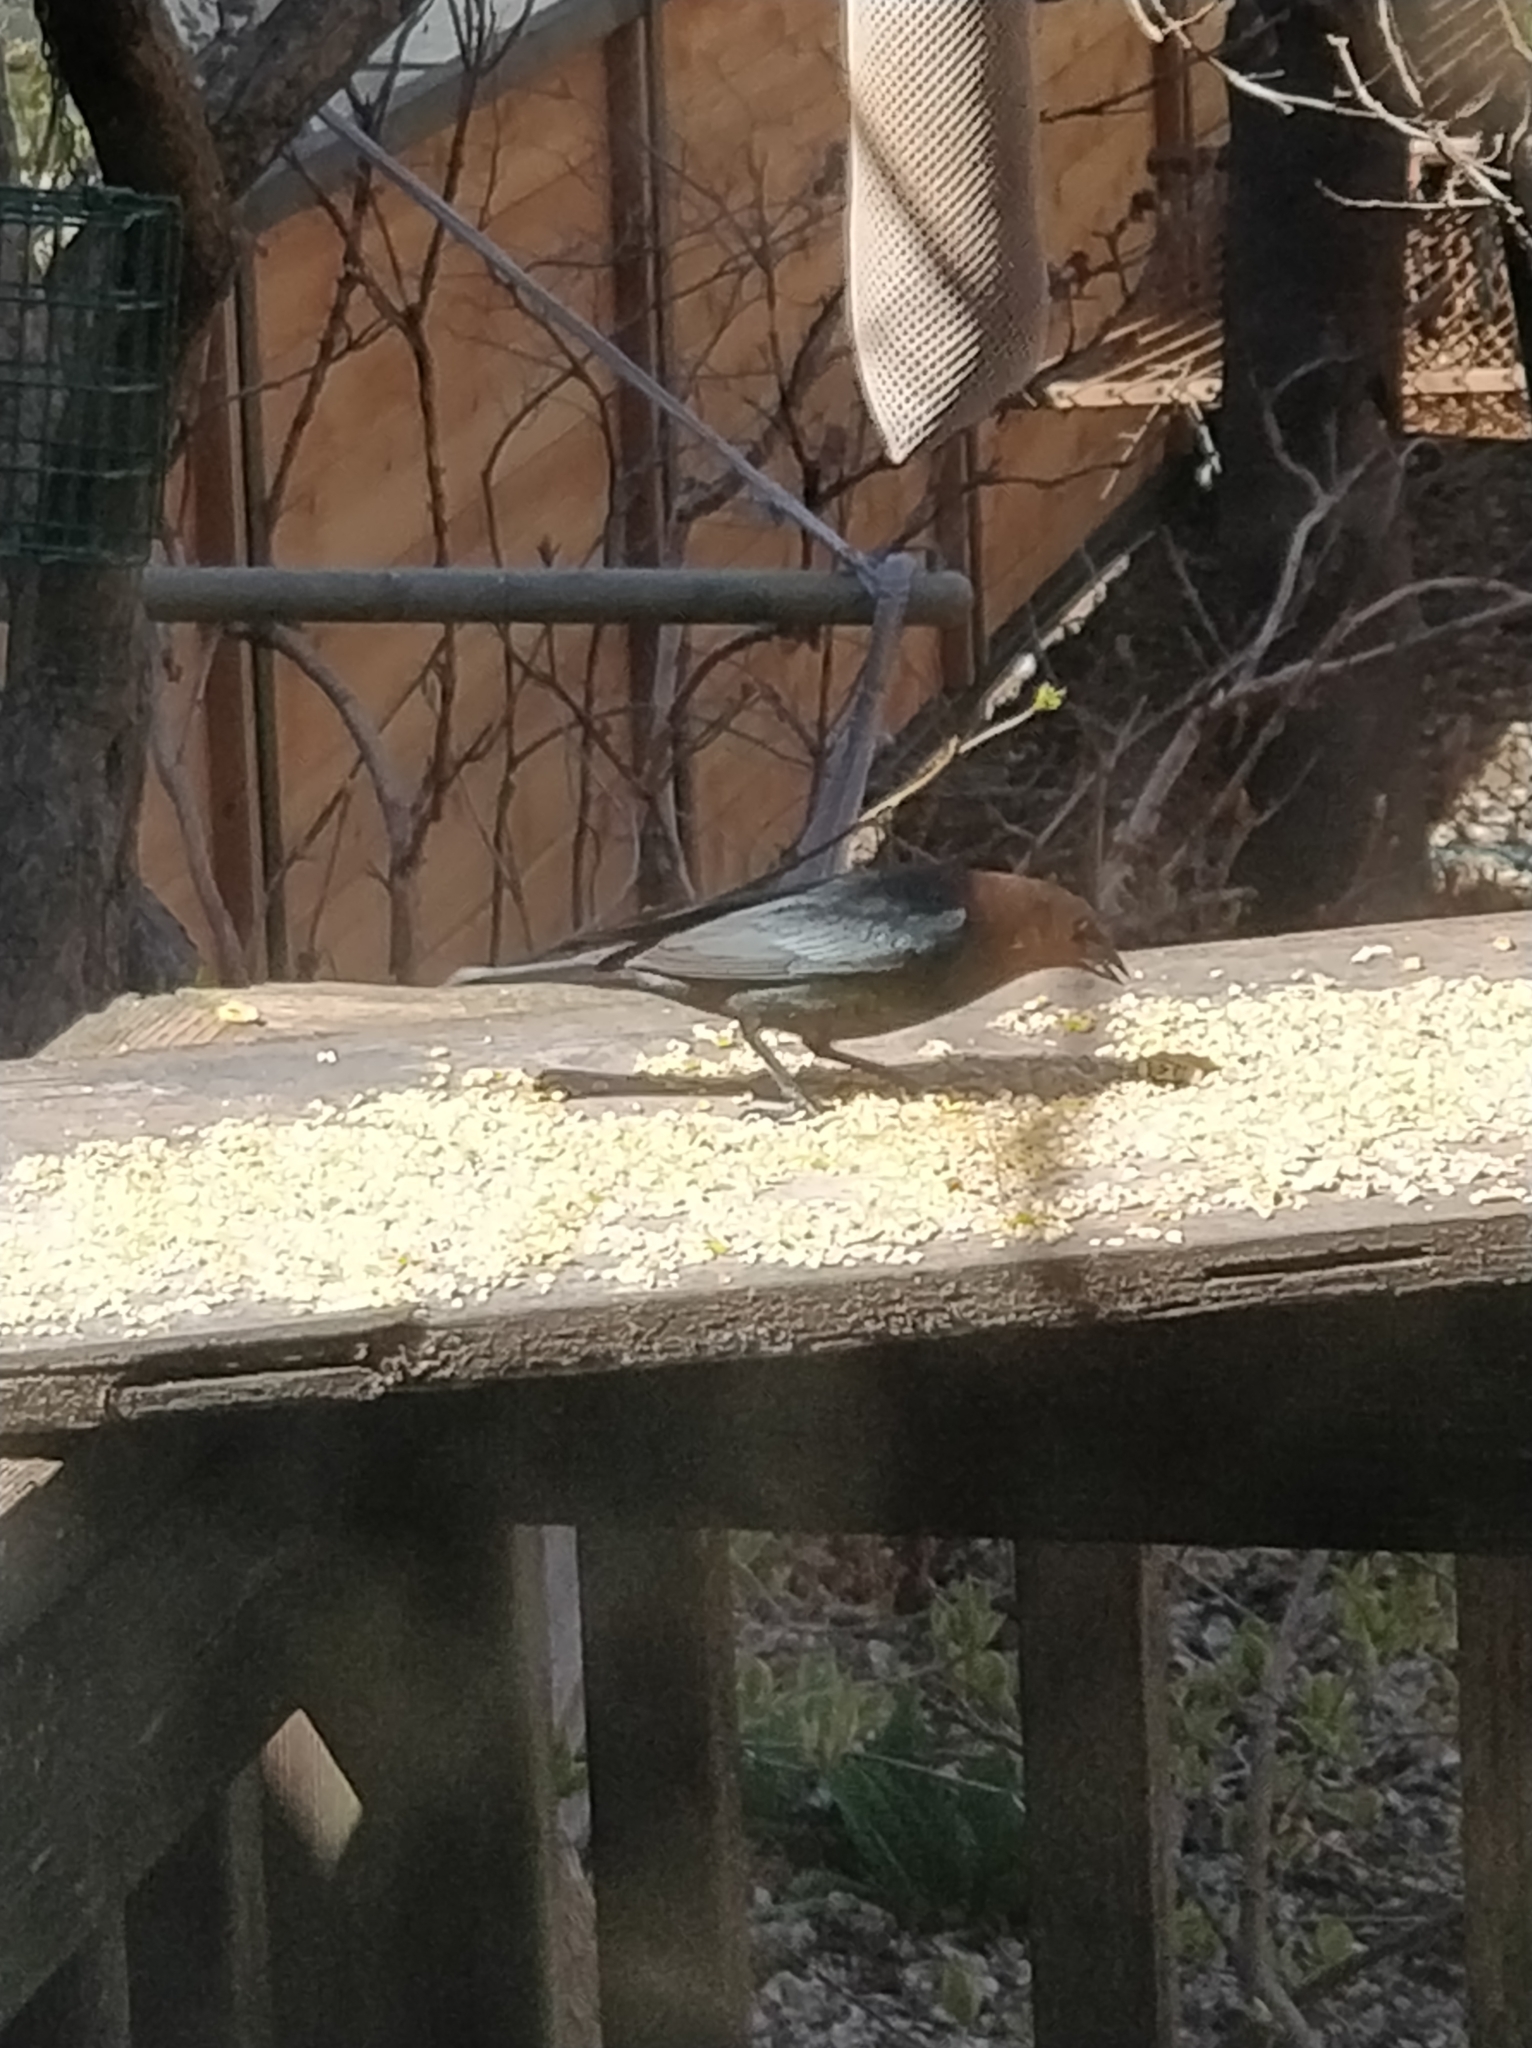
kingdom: Animalia
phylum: Chordata
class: Aves
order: Passeriformes
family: Icteridae
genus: Molothrus
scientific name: Molothrus ater
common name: Brown-headed cowbird
